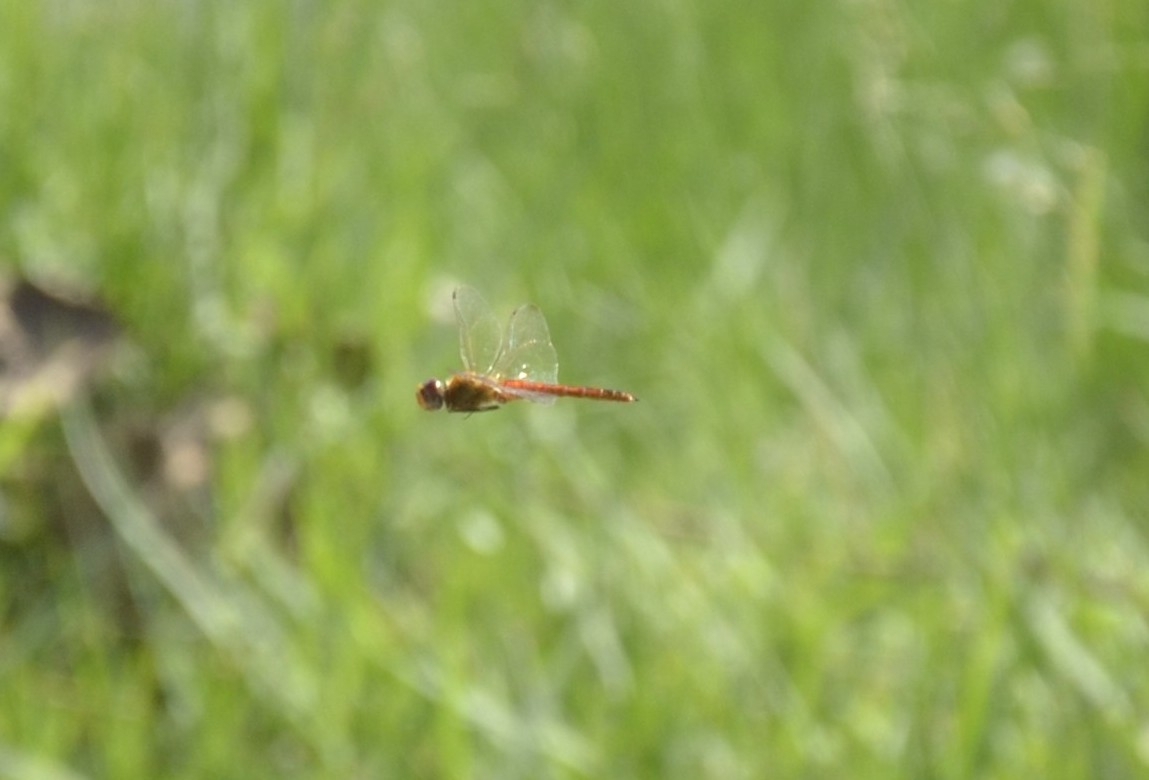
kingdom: Animalia
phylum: Arthropoda
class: Insecta
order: Odonata
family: Libellulidae
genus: Pantala
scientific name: Pantala flavescens
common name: Wandering glider
